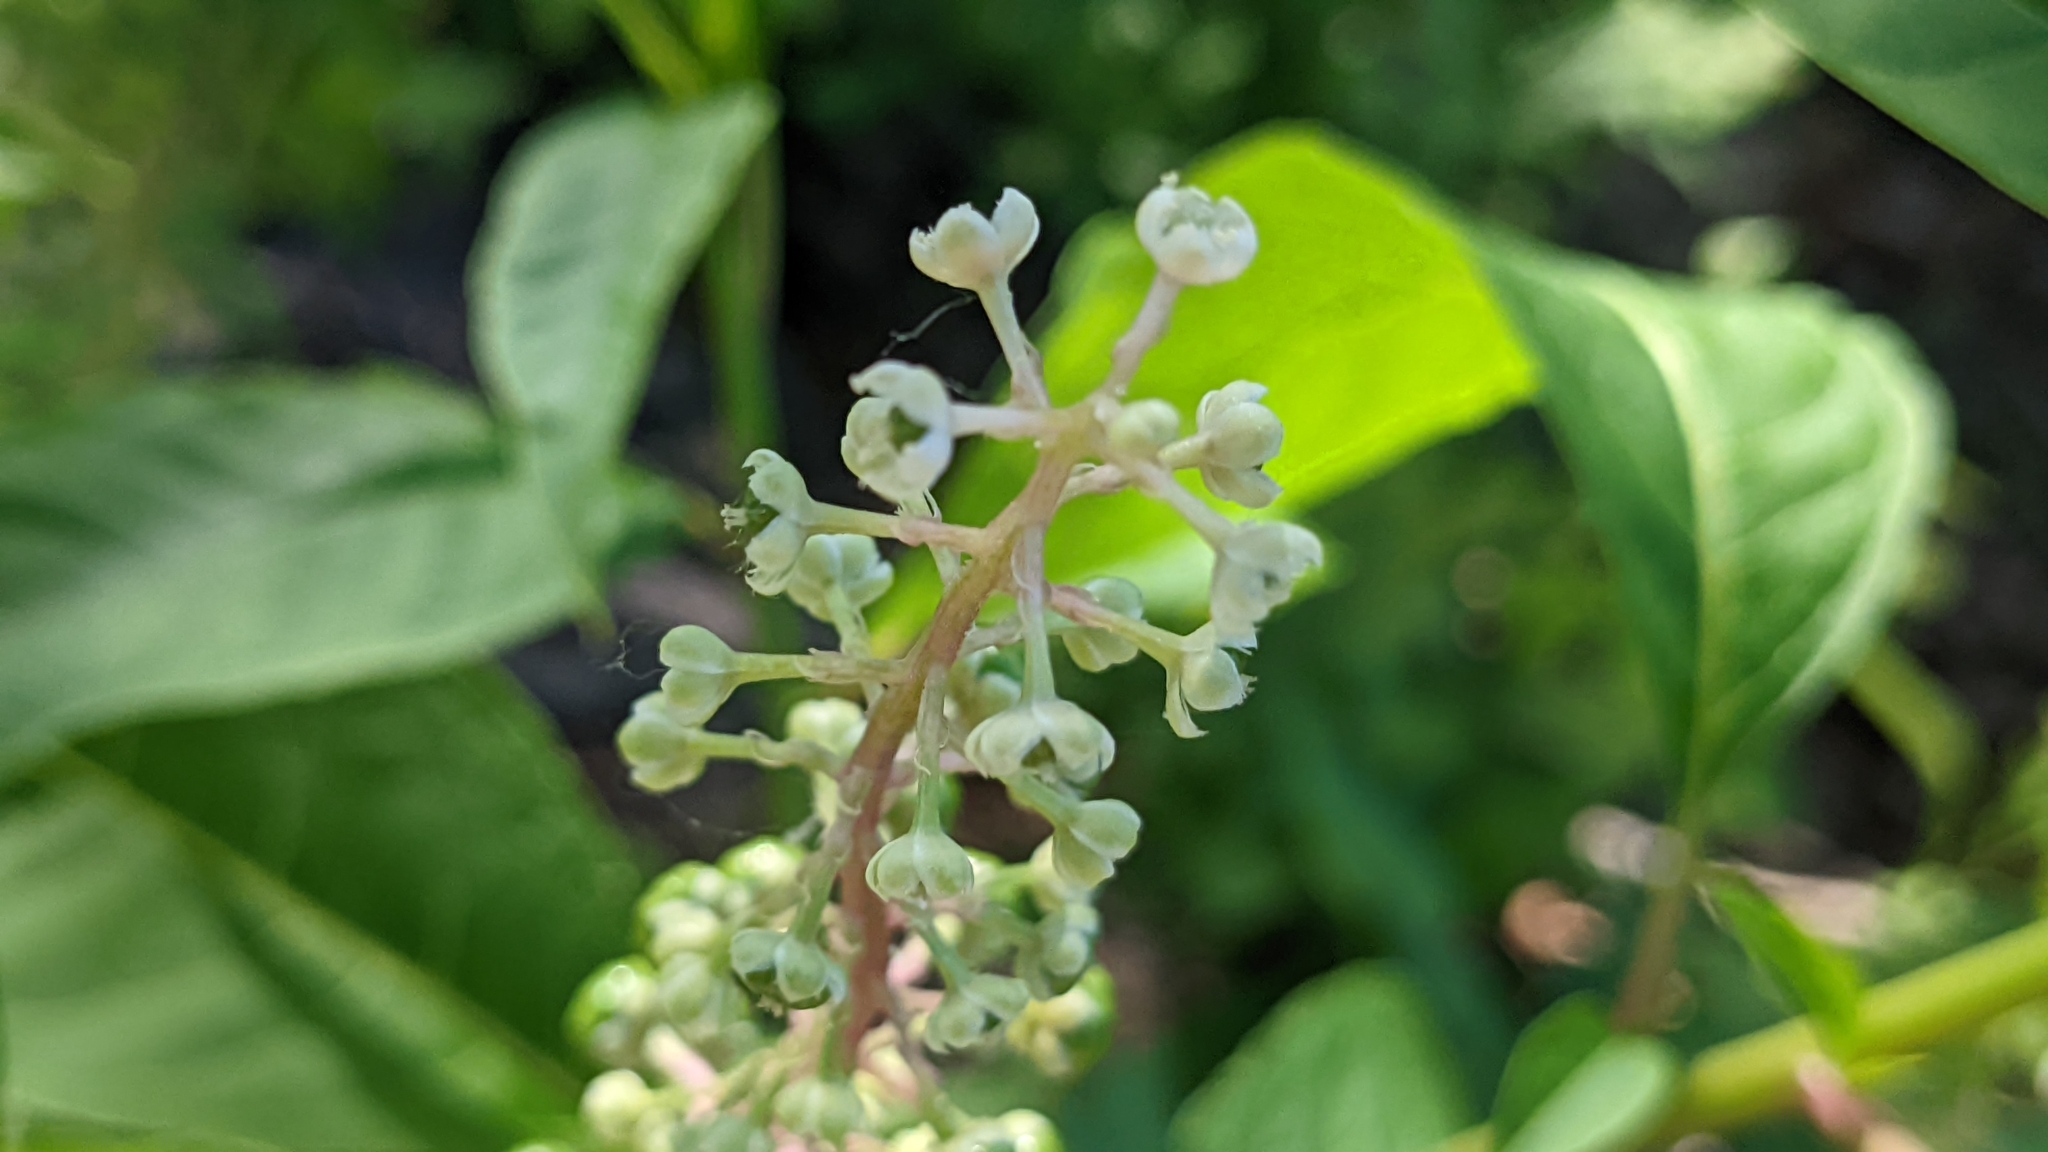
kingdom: Plantae
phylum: Tracheophyta
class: Magnoliopsida
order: Caryophyllales
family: Phytolaccaceae
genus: Phytolacca
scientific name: Phytolacca americana
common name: American pokeweed
